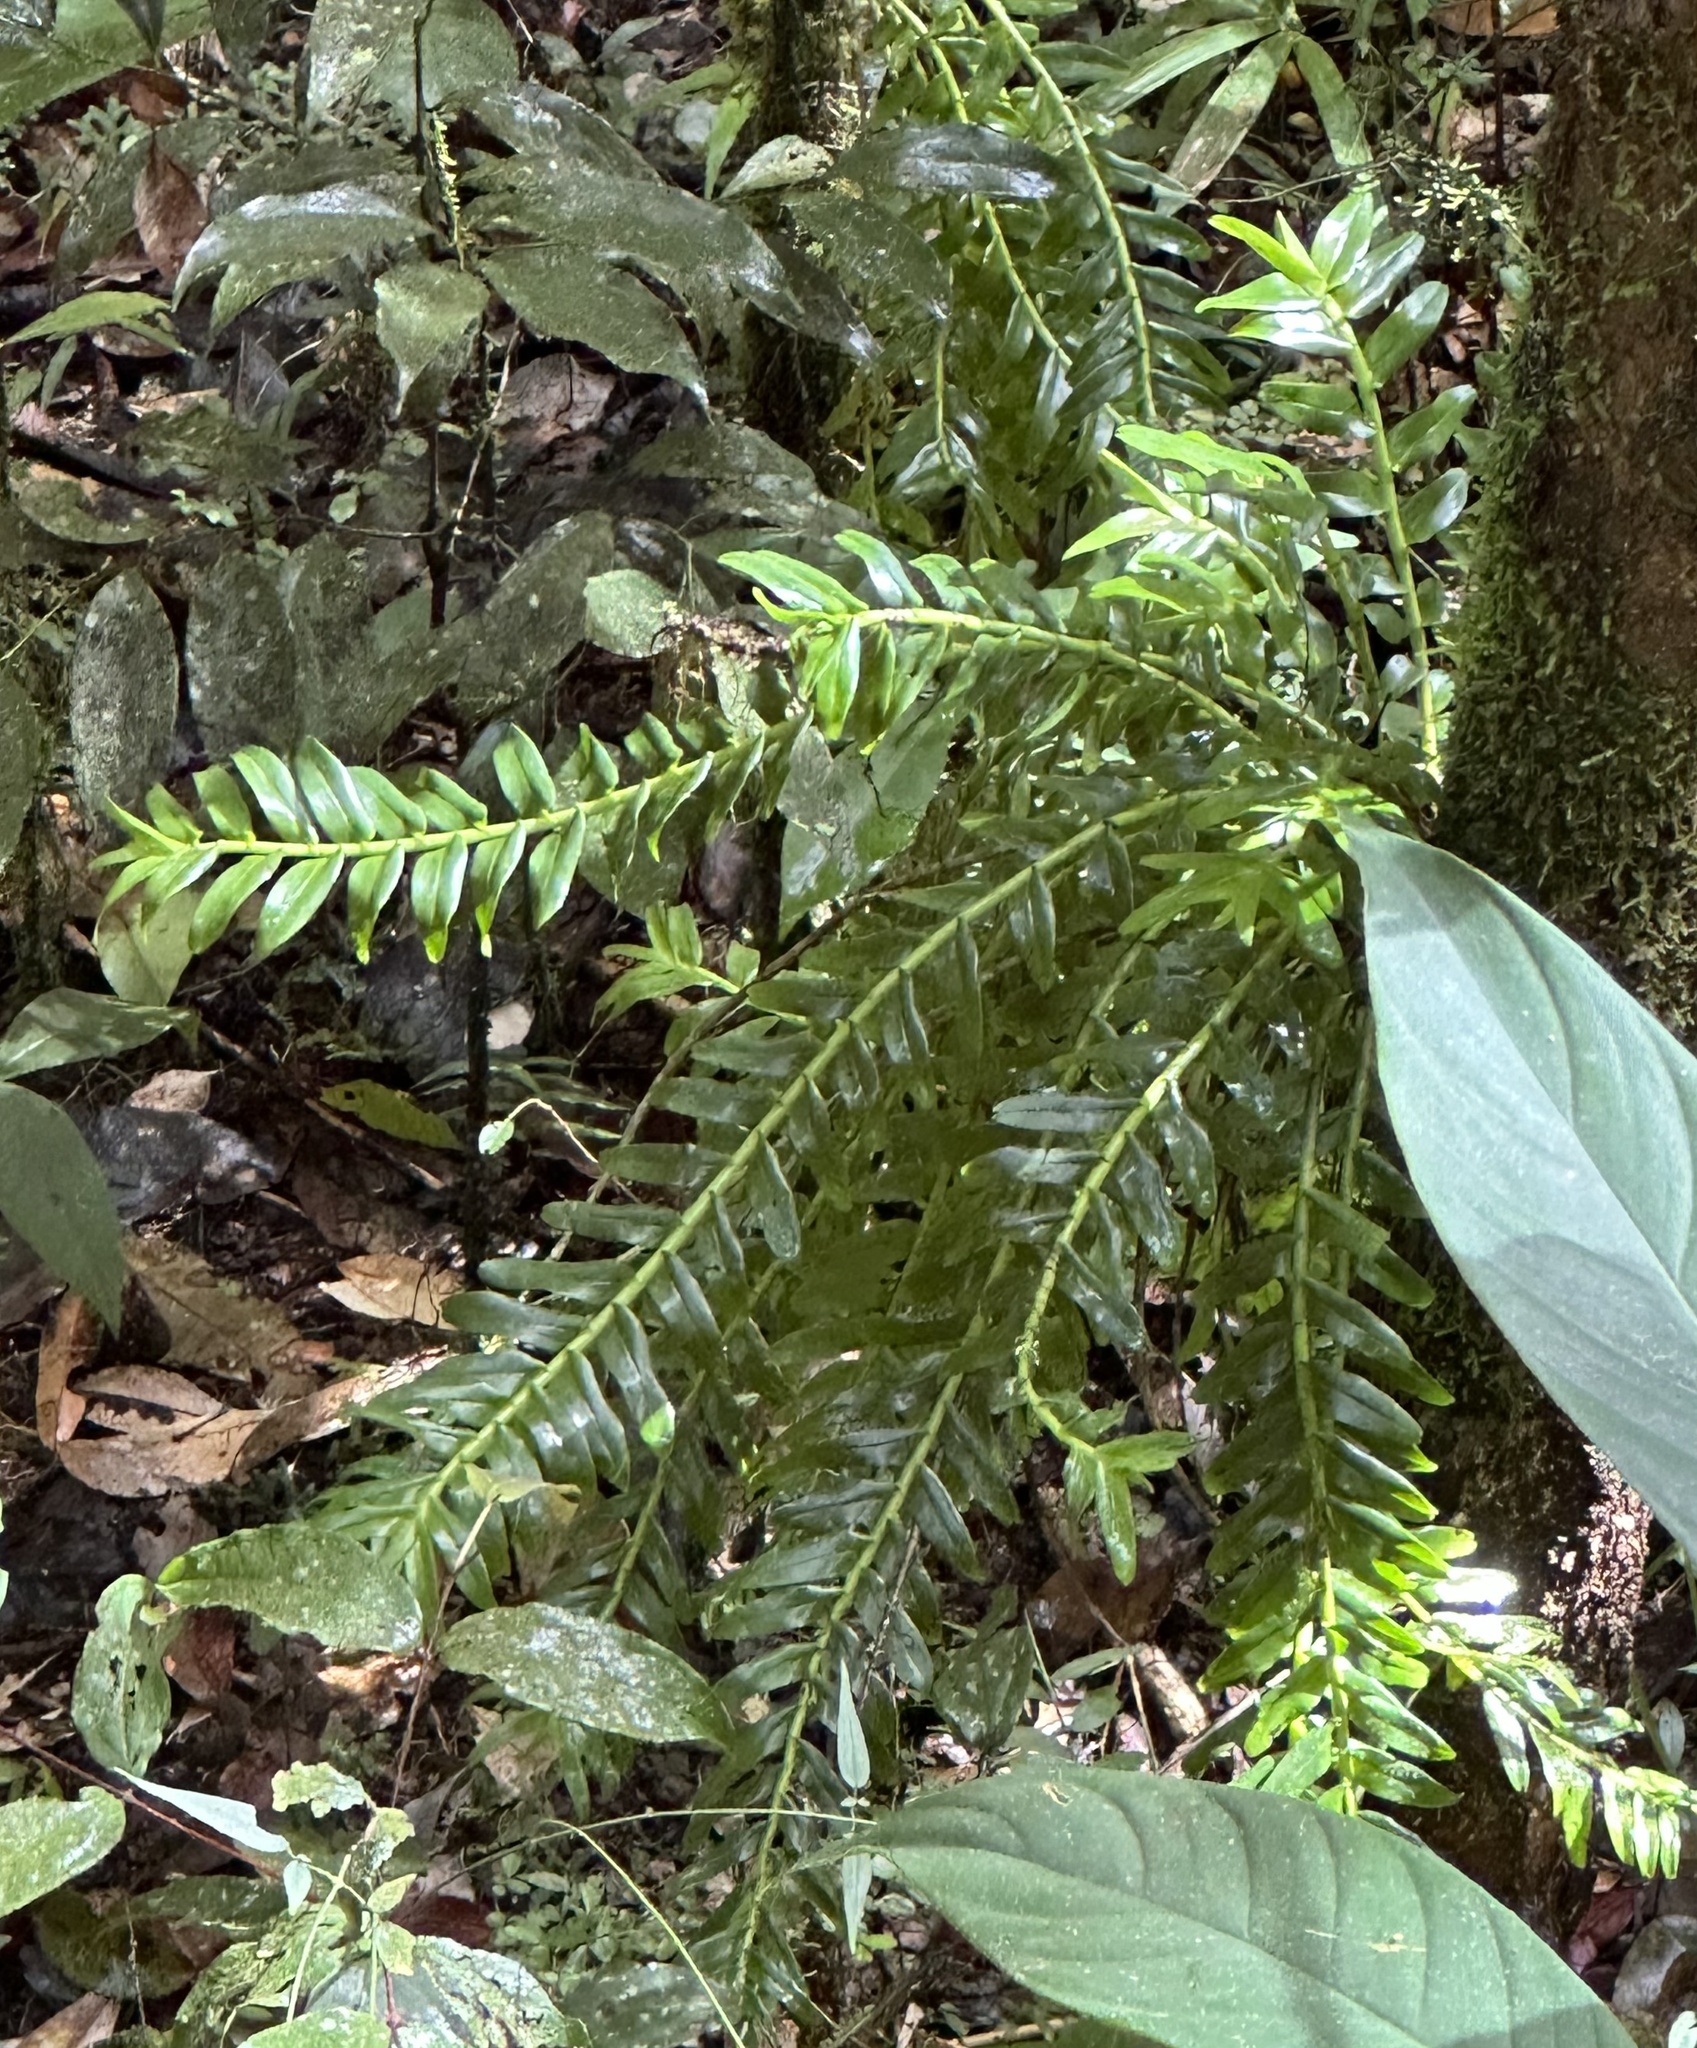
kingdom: Plantae
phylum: Tracheophyta
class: Liliopsida
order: Asparagales
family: Orchidaceae
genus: Podochilus
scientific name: Podochilus australiensis
